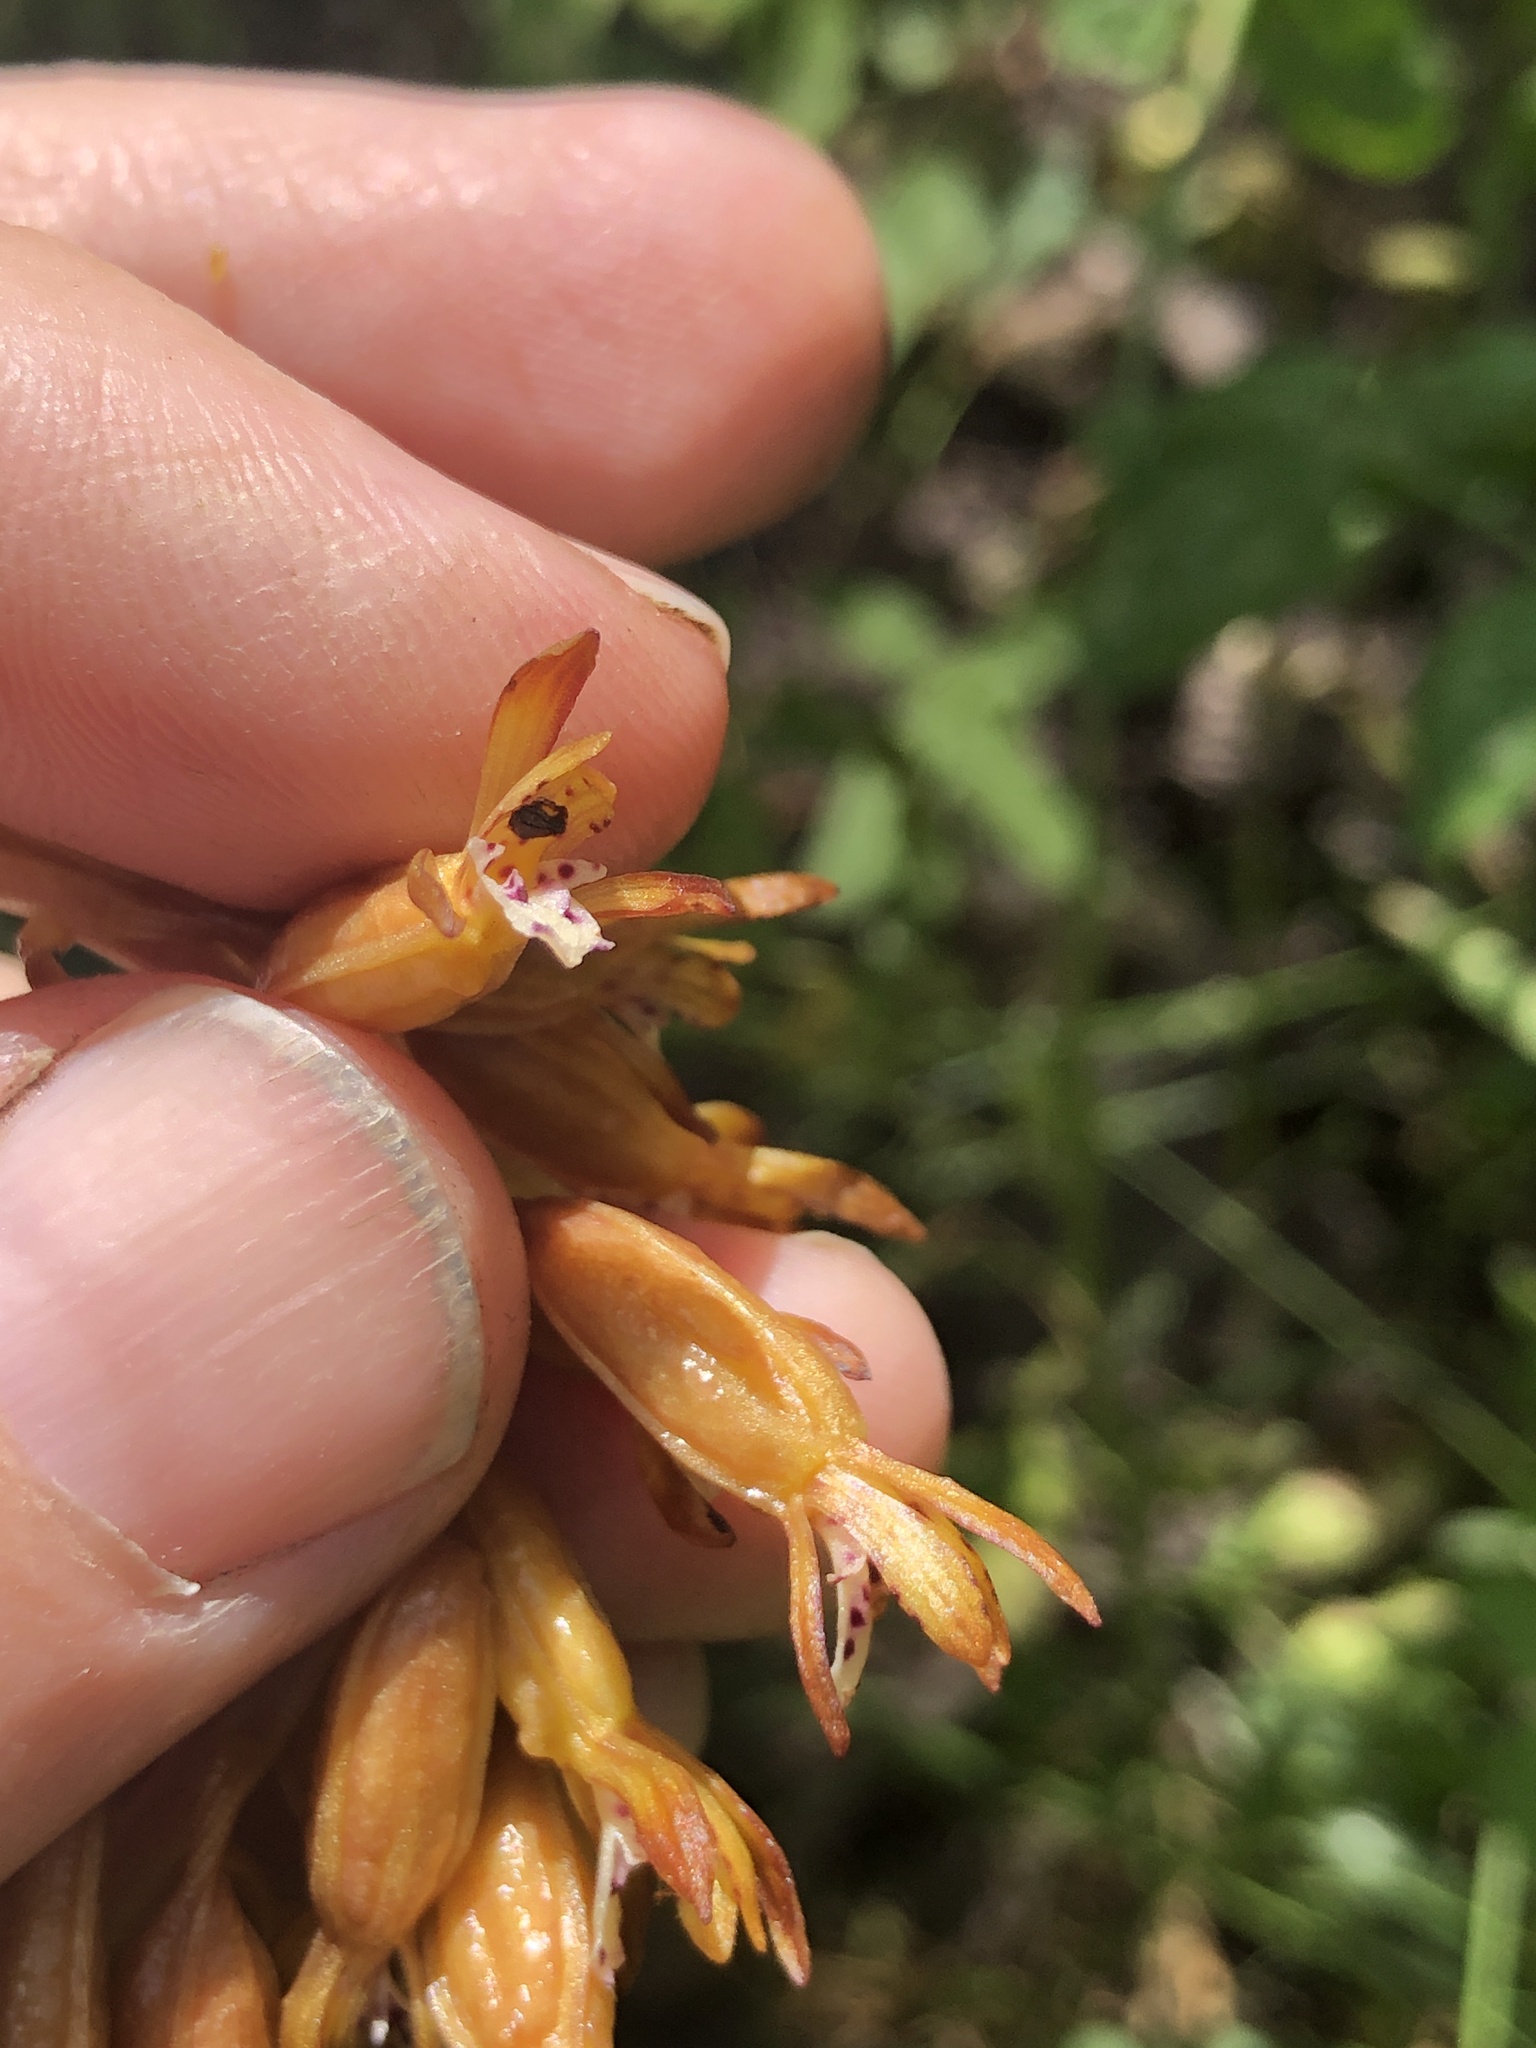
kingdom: Plantae
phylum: Tracheophyta
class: Liliopsida
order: Asparagales
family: Orchidaceae
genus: Corallorhiza
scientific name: Corallorhiza maculata
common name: Spotted coralroot
